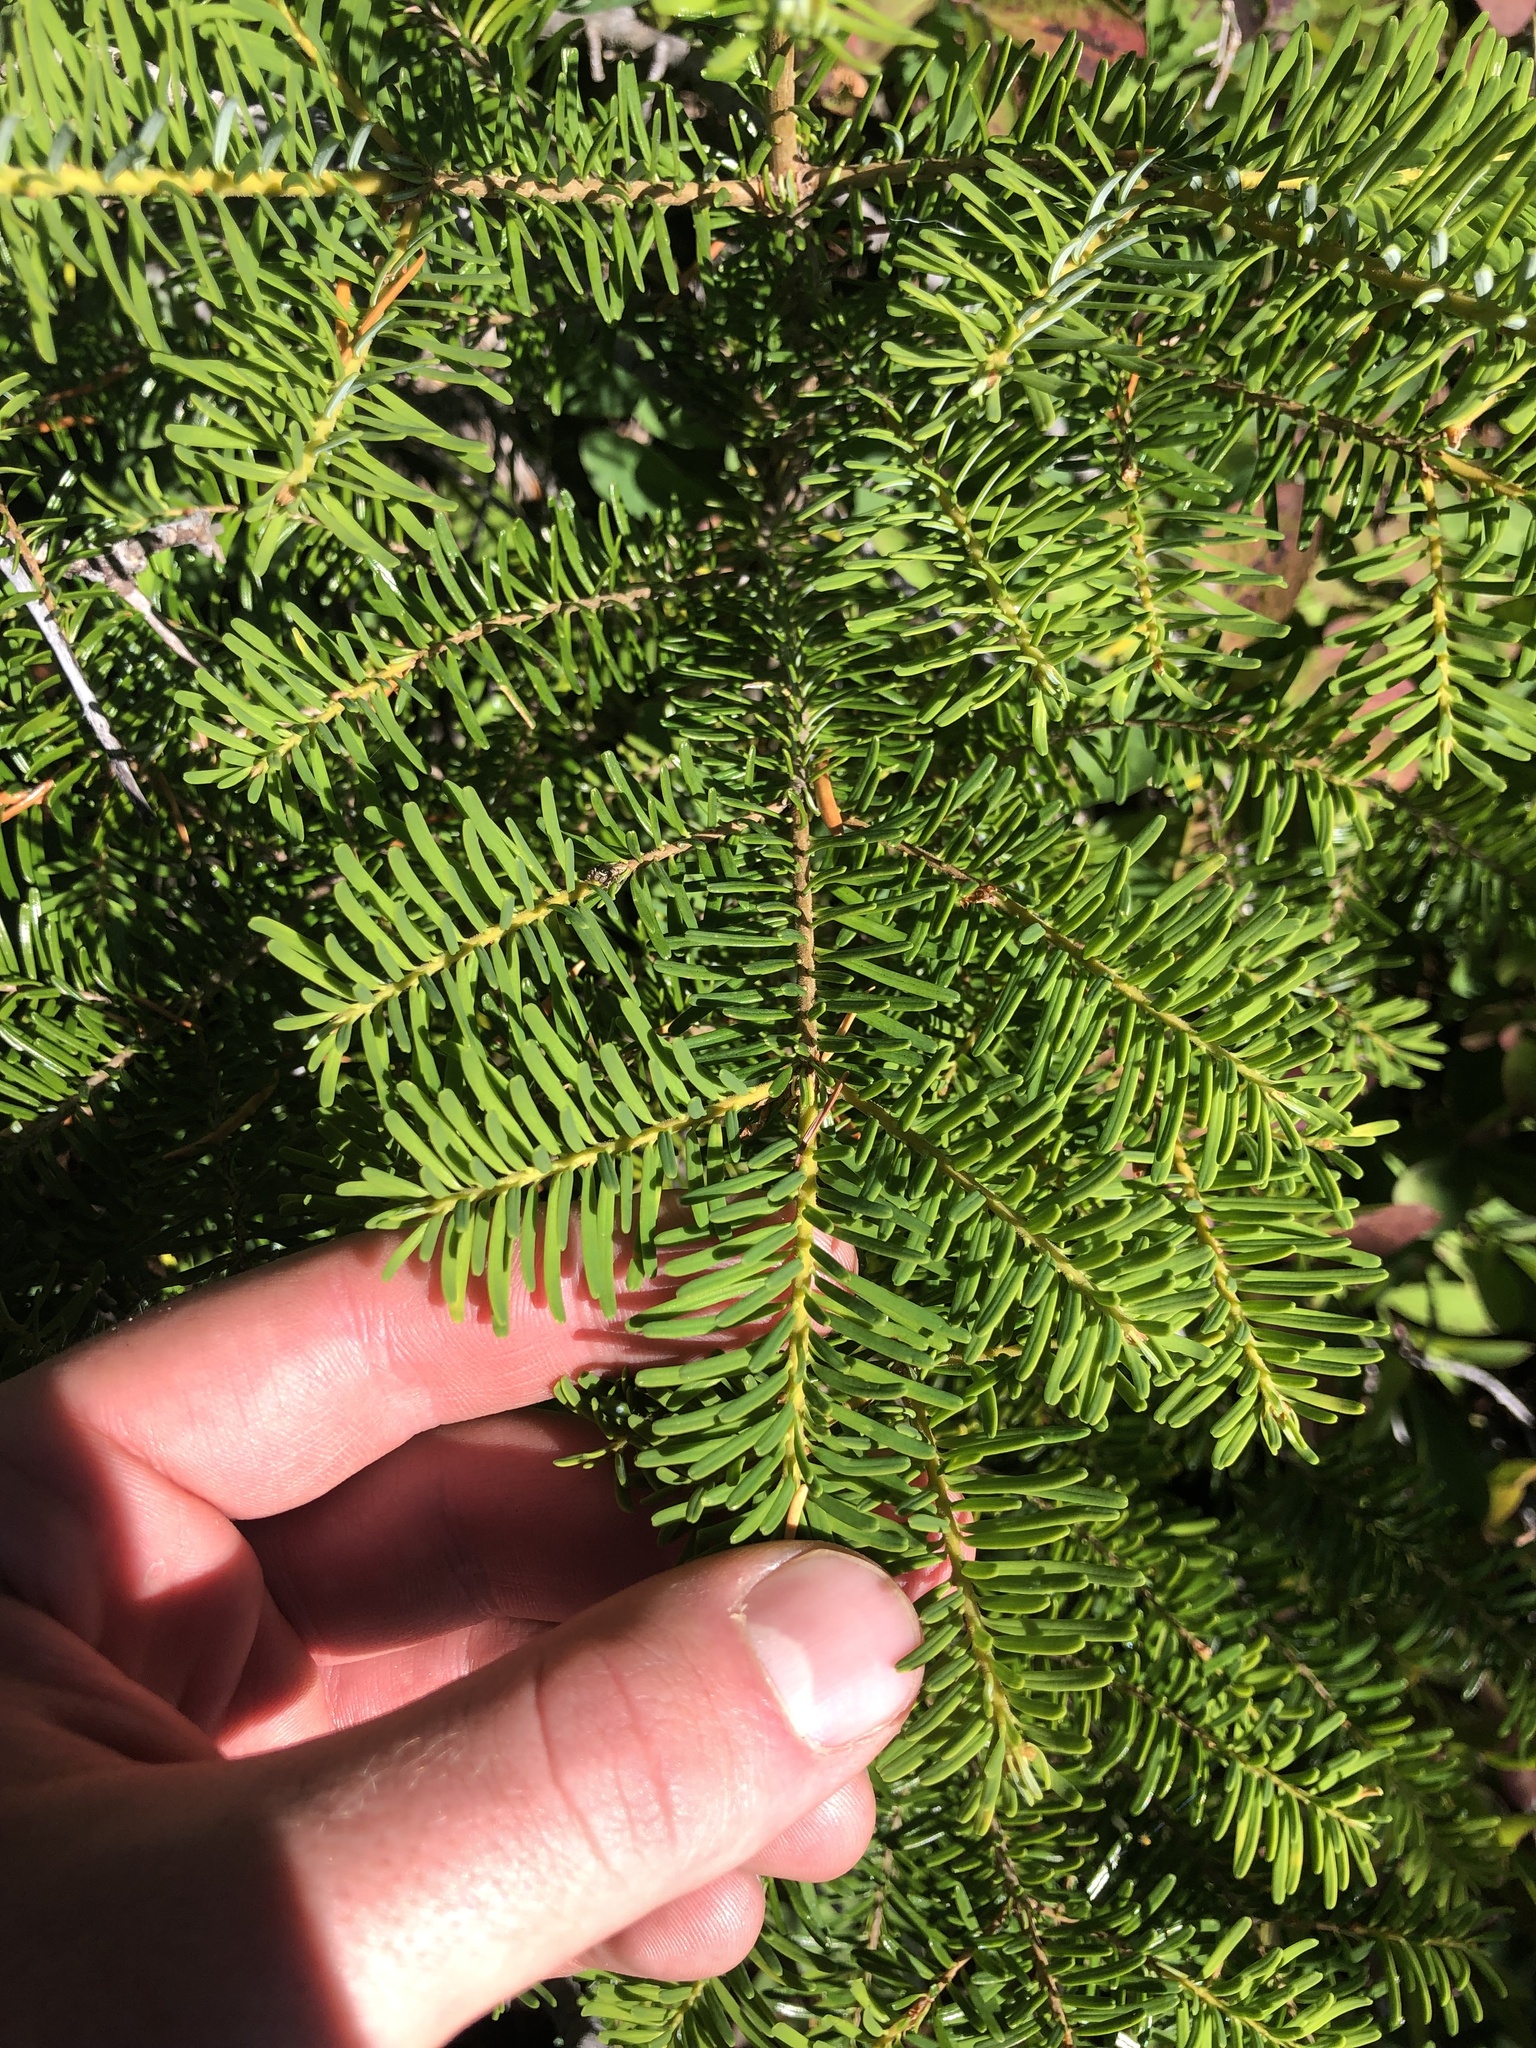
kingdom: Plantae
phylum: Tracheophyta
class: Pinopsida
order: Pinales
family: Pinaceae
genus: Abies
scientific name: Abies amabilis
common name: Pacific silver fir
